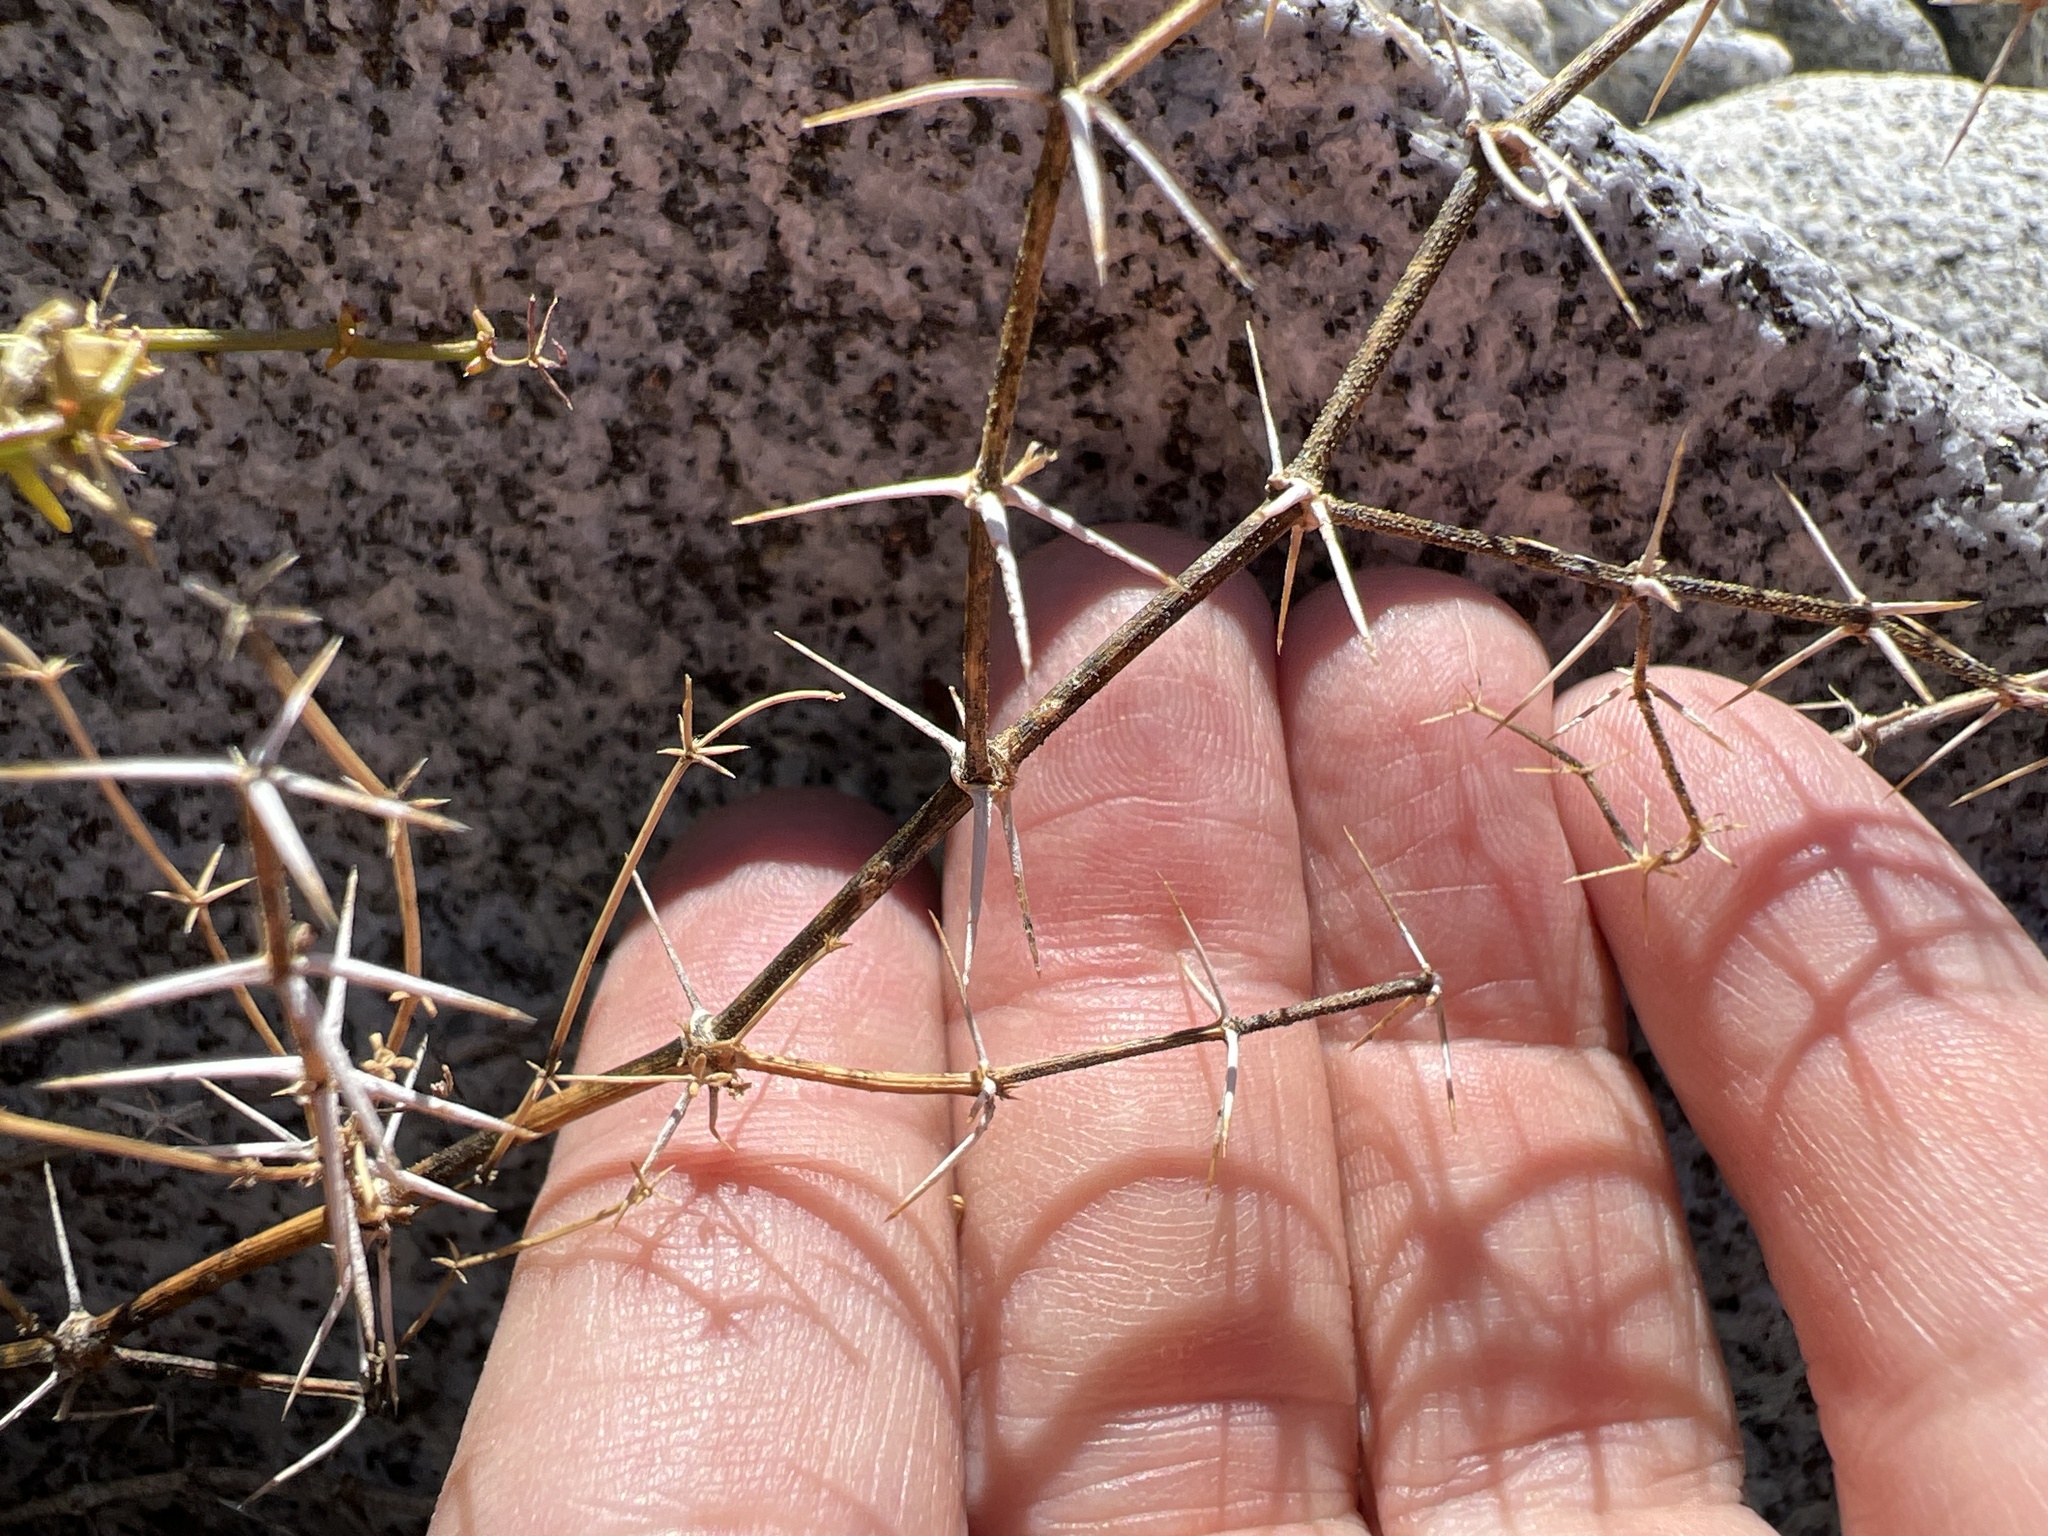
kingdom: Plantae
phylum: Tracheophyta
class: Magnoliopsida
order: Zygophyllales
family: Zygophyllaceae
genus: Fagonia
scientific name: Fagonia pachyacantha
